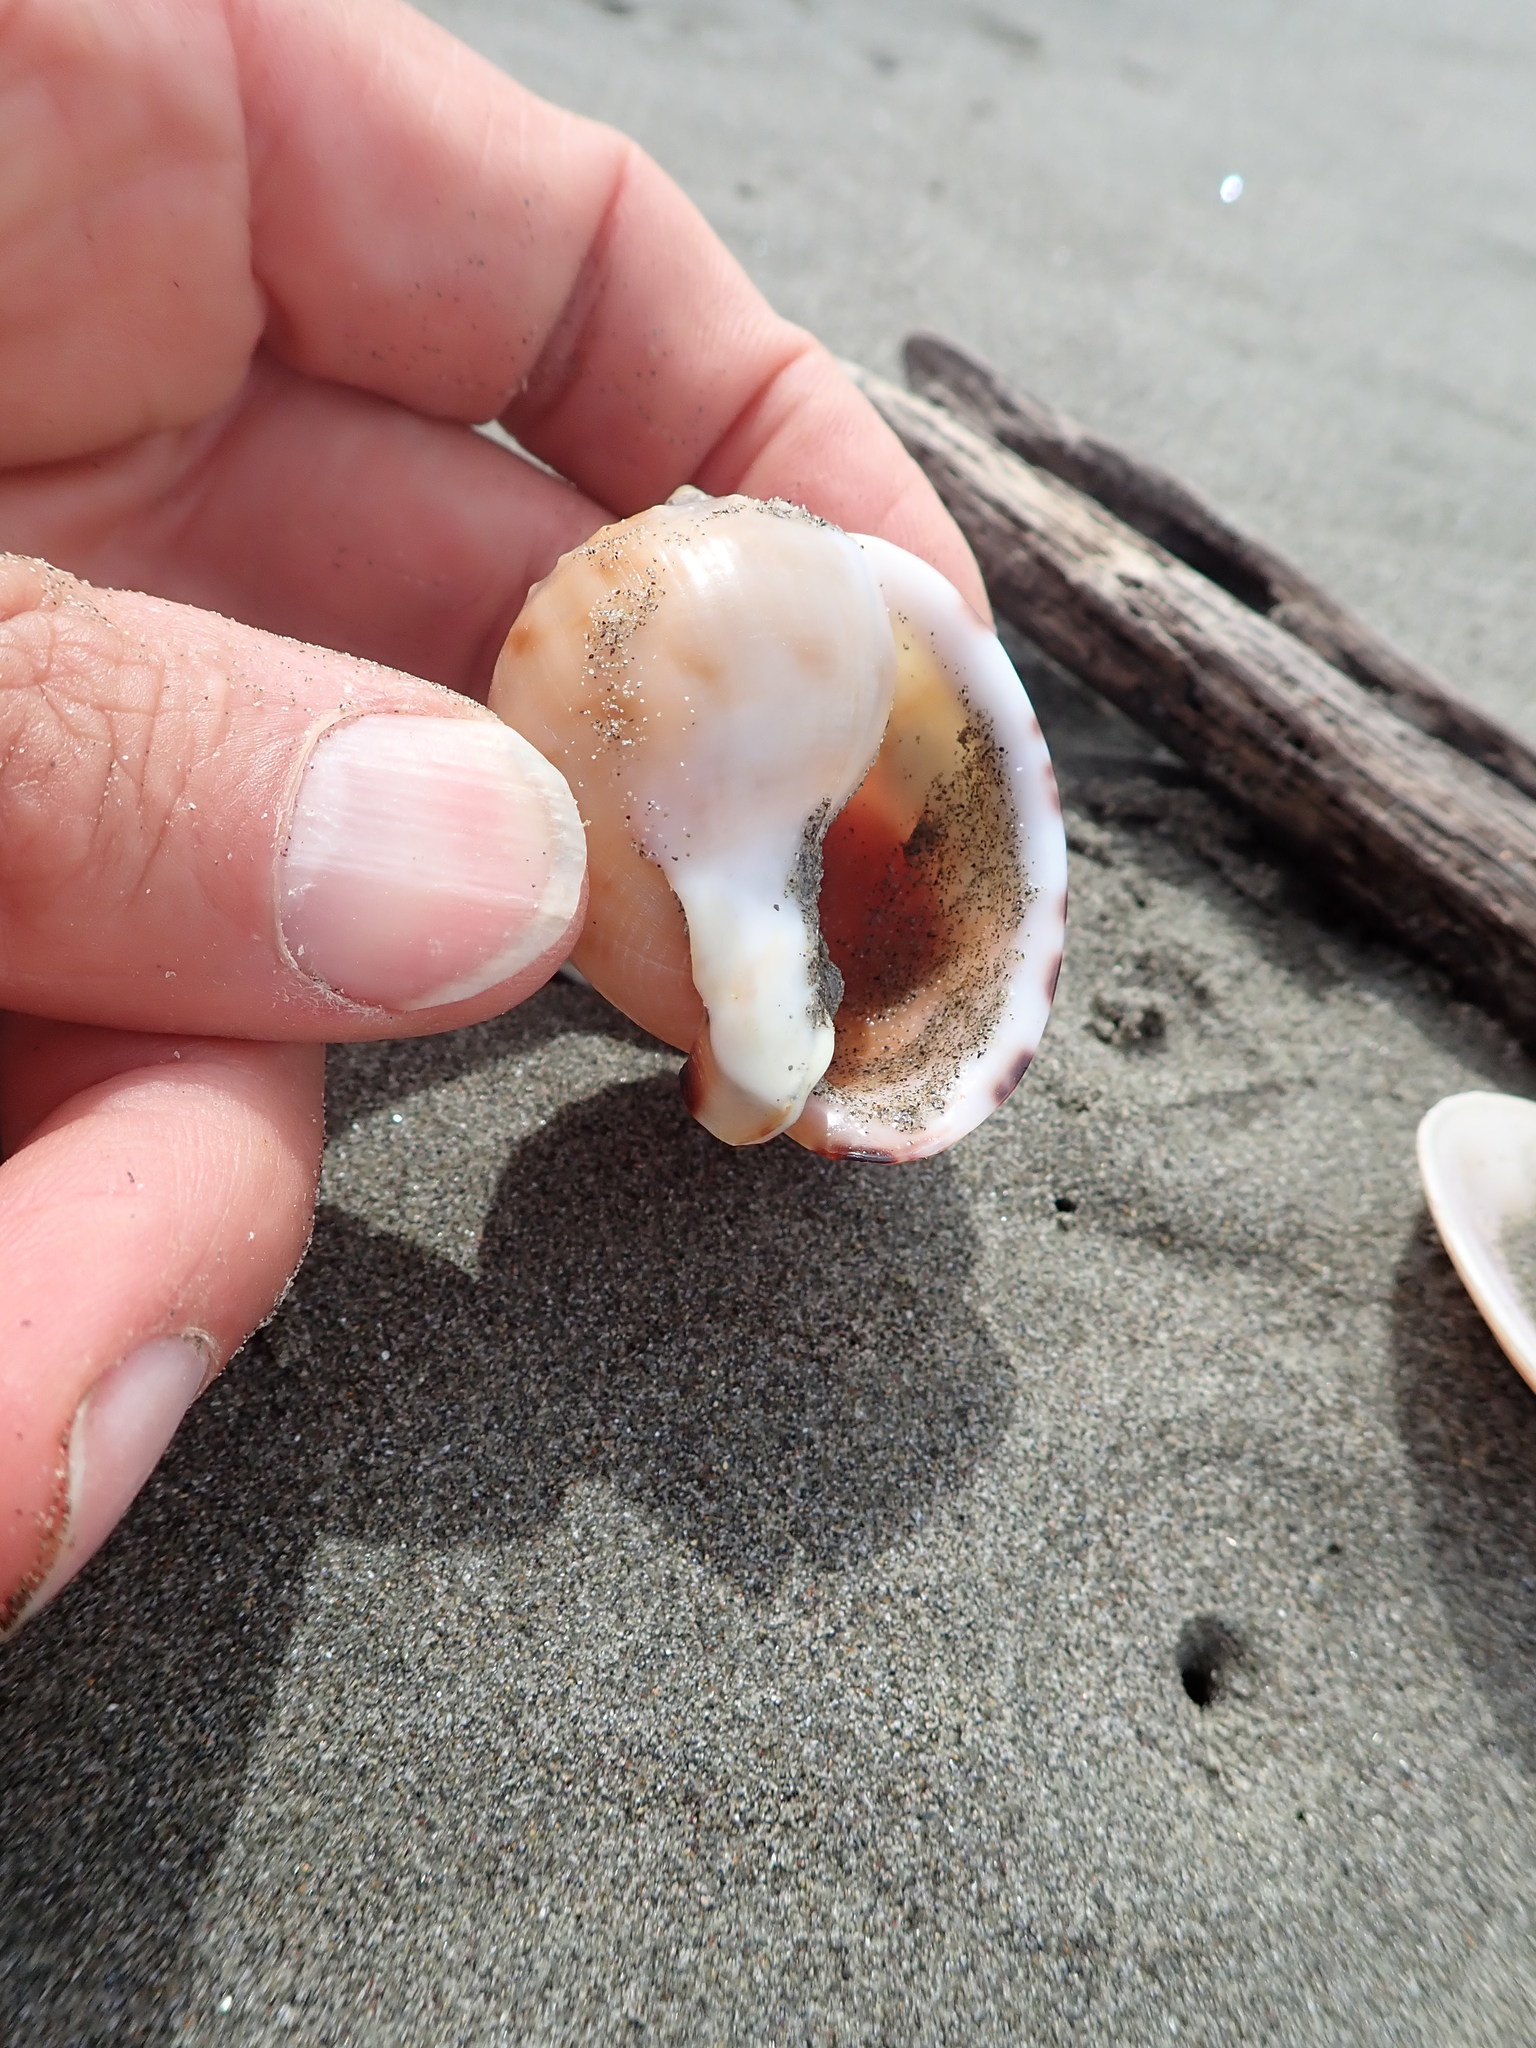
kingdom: Animalia
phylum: Mollusca
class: Gastropoda
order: Littorinimorpha
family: Cassidae
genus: Semicassis
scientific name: Semicassis pyrum
